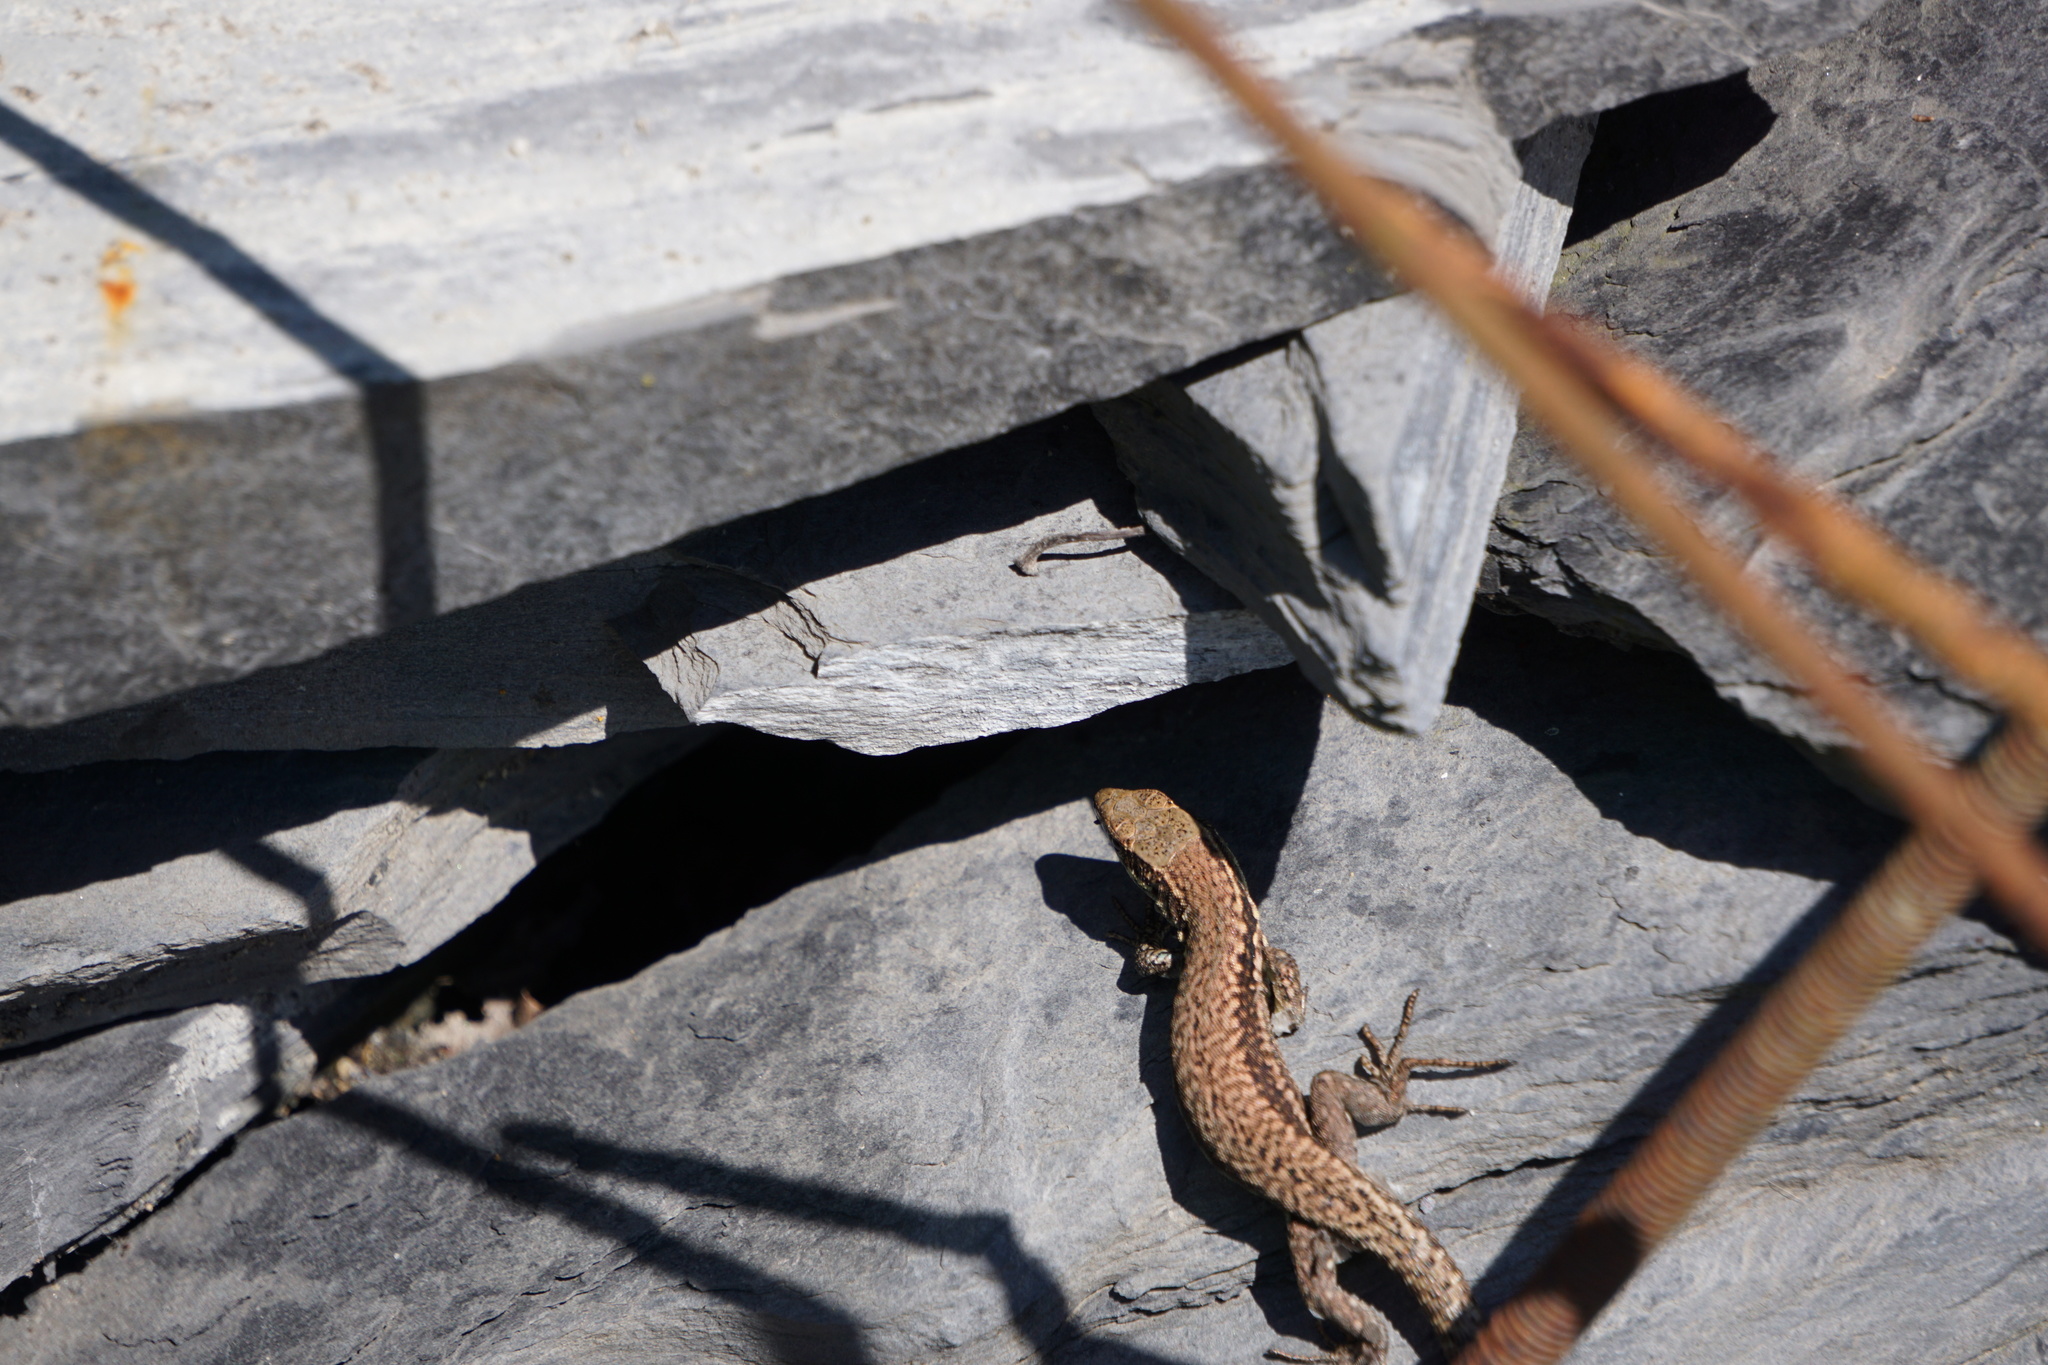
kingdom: Animalia
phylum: Chordata
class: Squamata
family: Lacertidae
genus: Podarcis
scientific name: Podarcis muralis
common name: Common wall lizard
